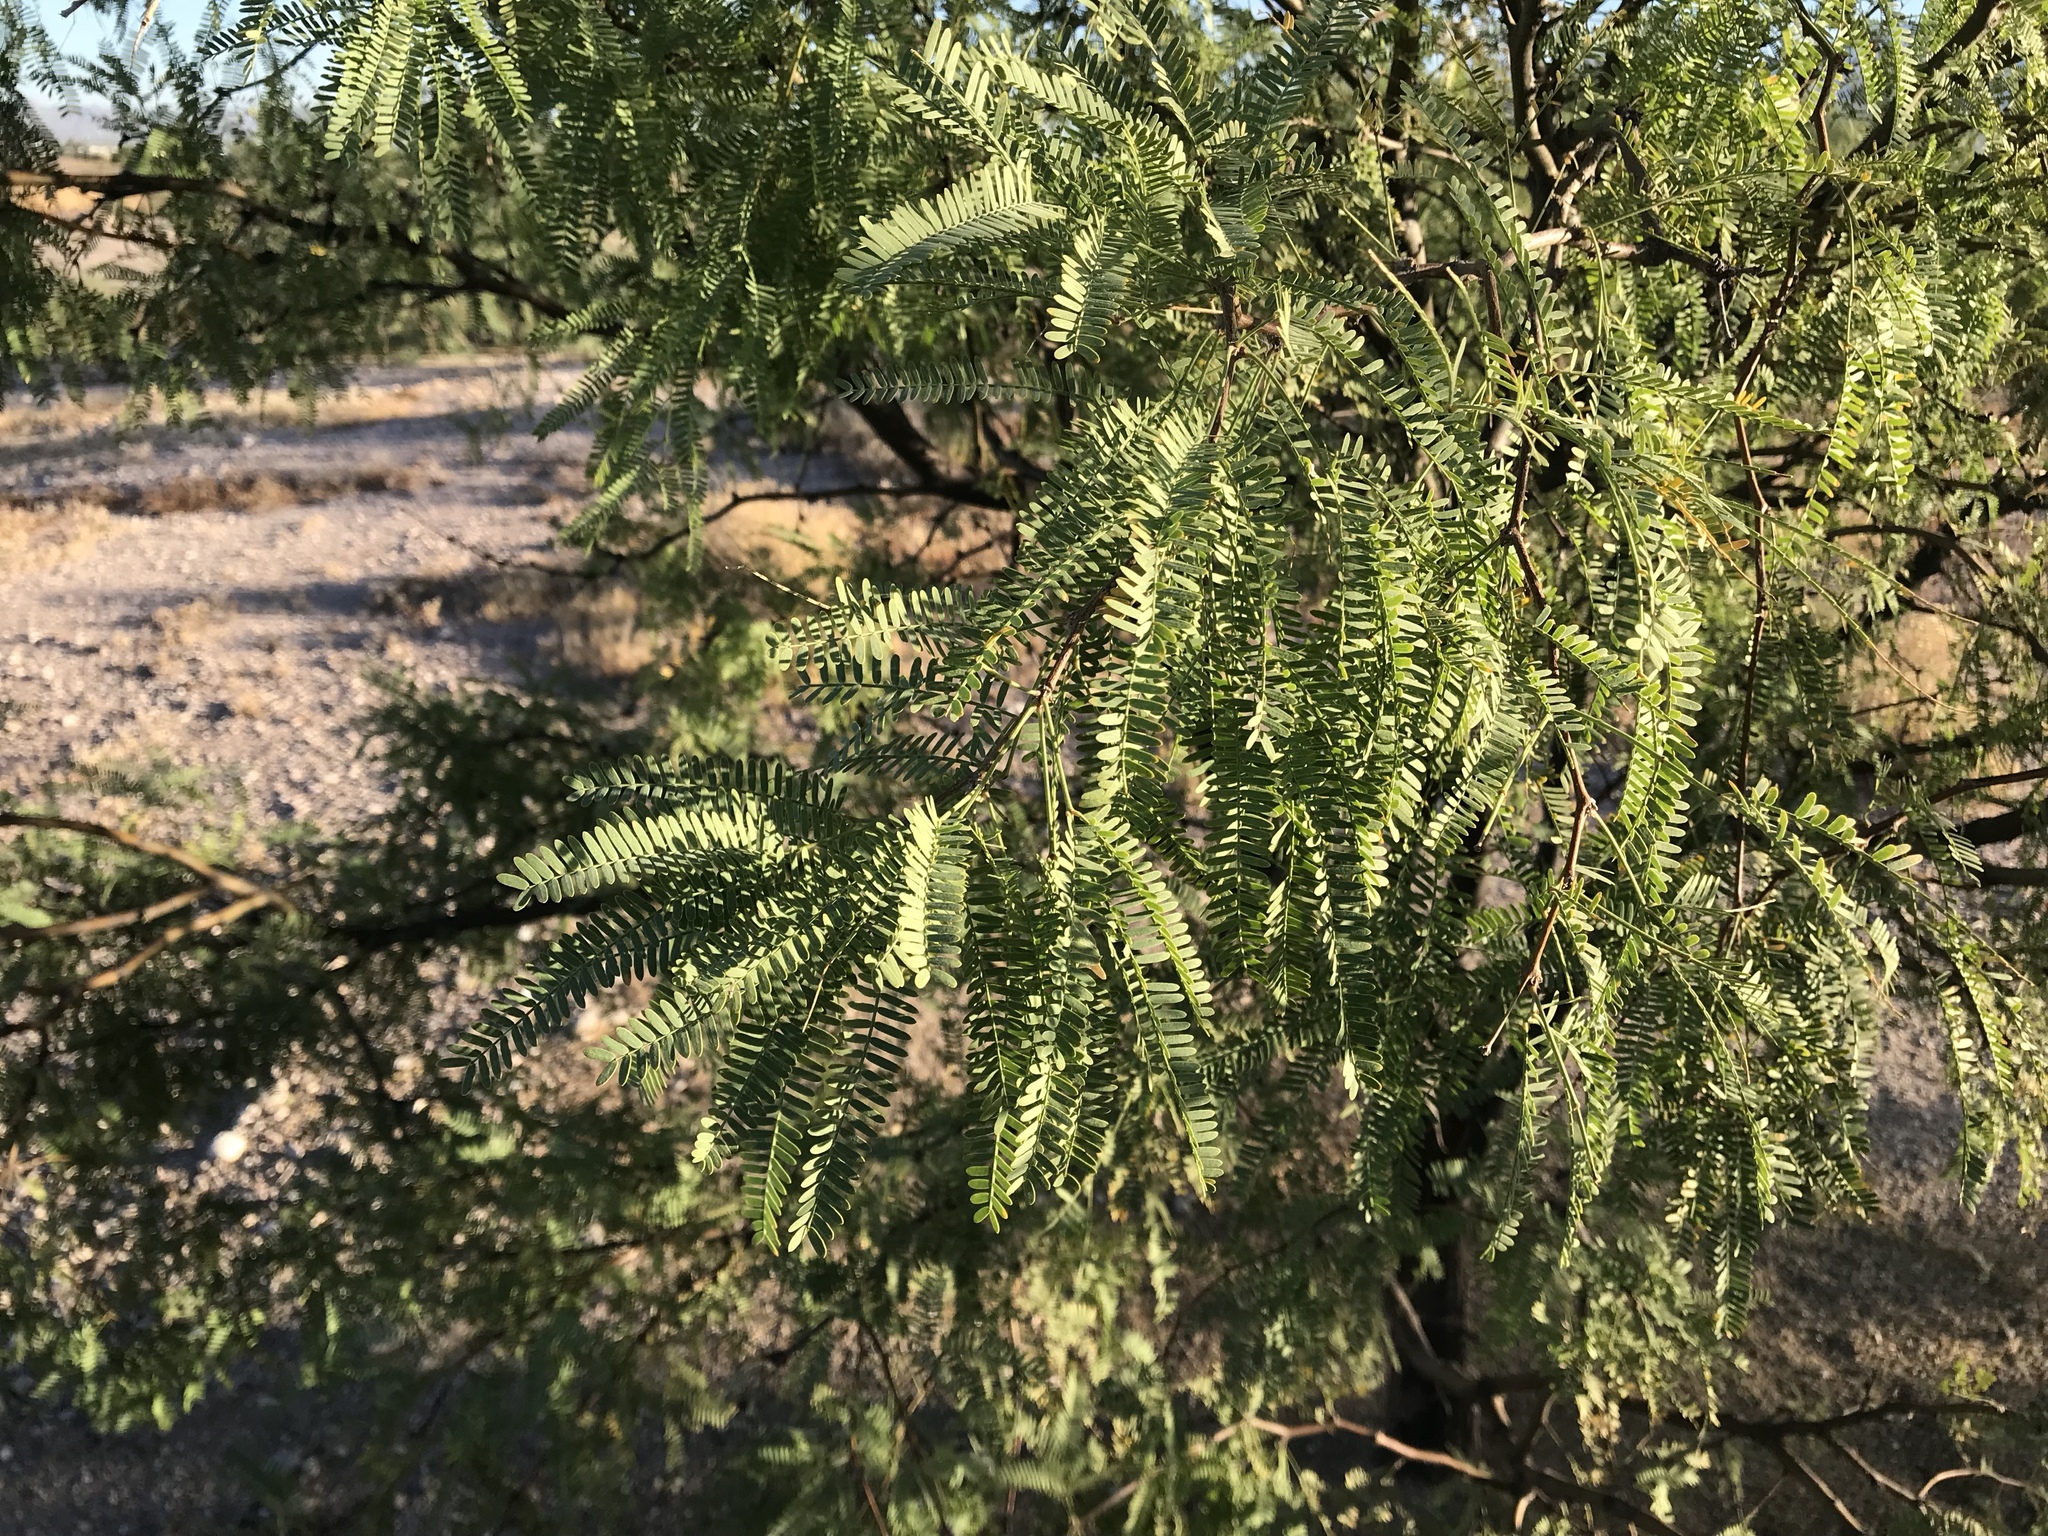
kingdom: Plantae
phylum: Tracheophyta
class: Magnoliopsida
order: Fabales
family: Fabaceae
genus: Prosopis
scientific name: Prosopis velutina
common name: Velvet mesquite
